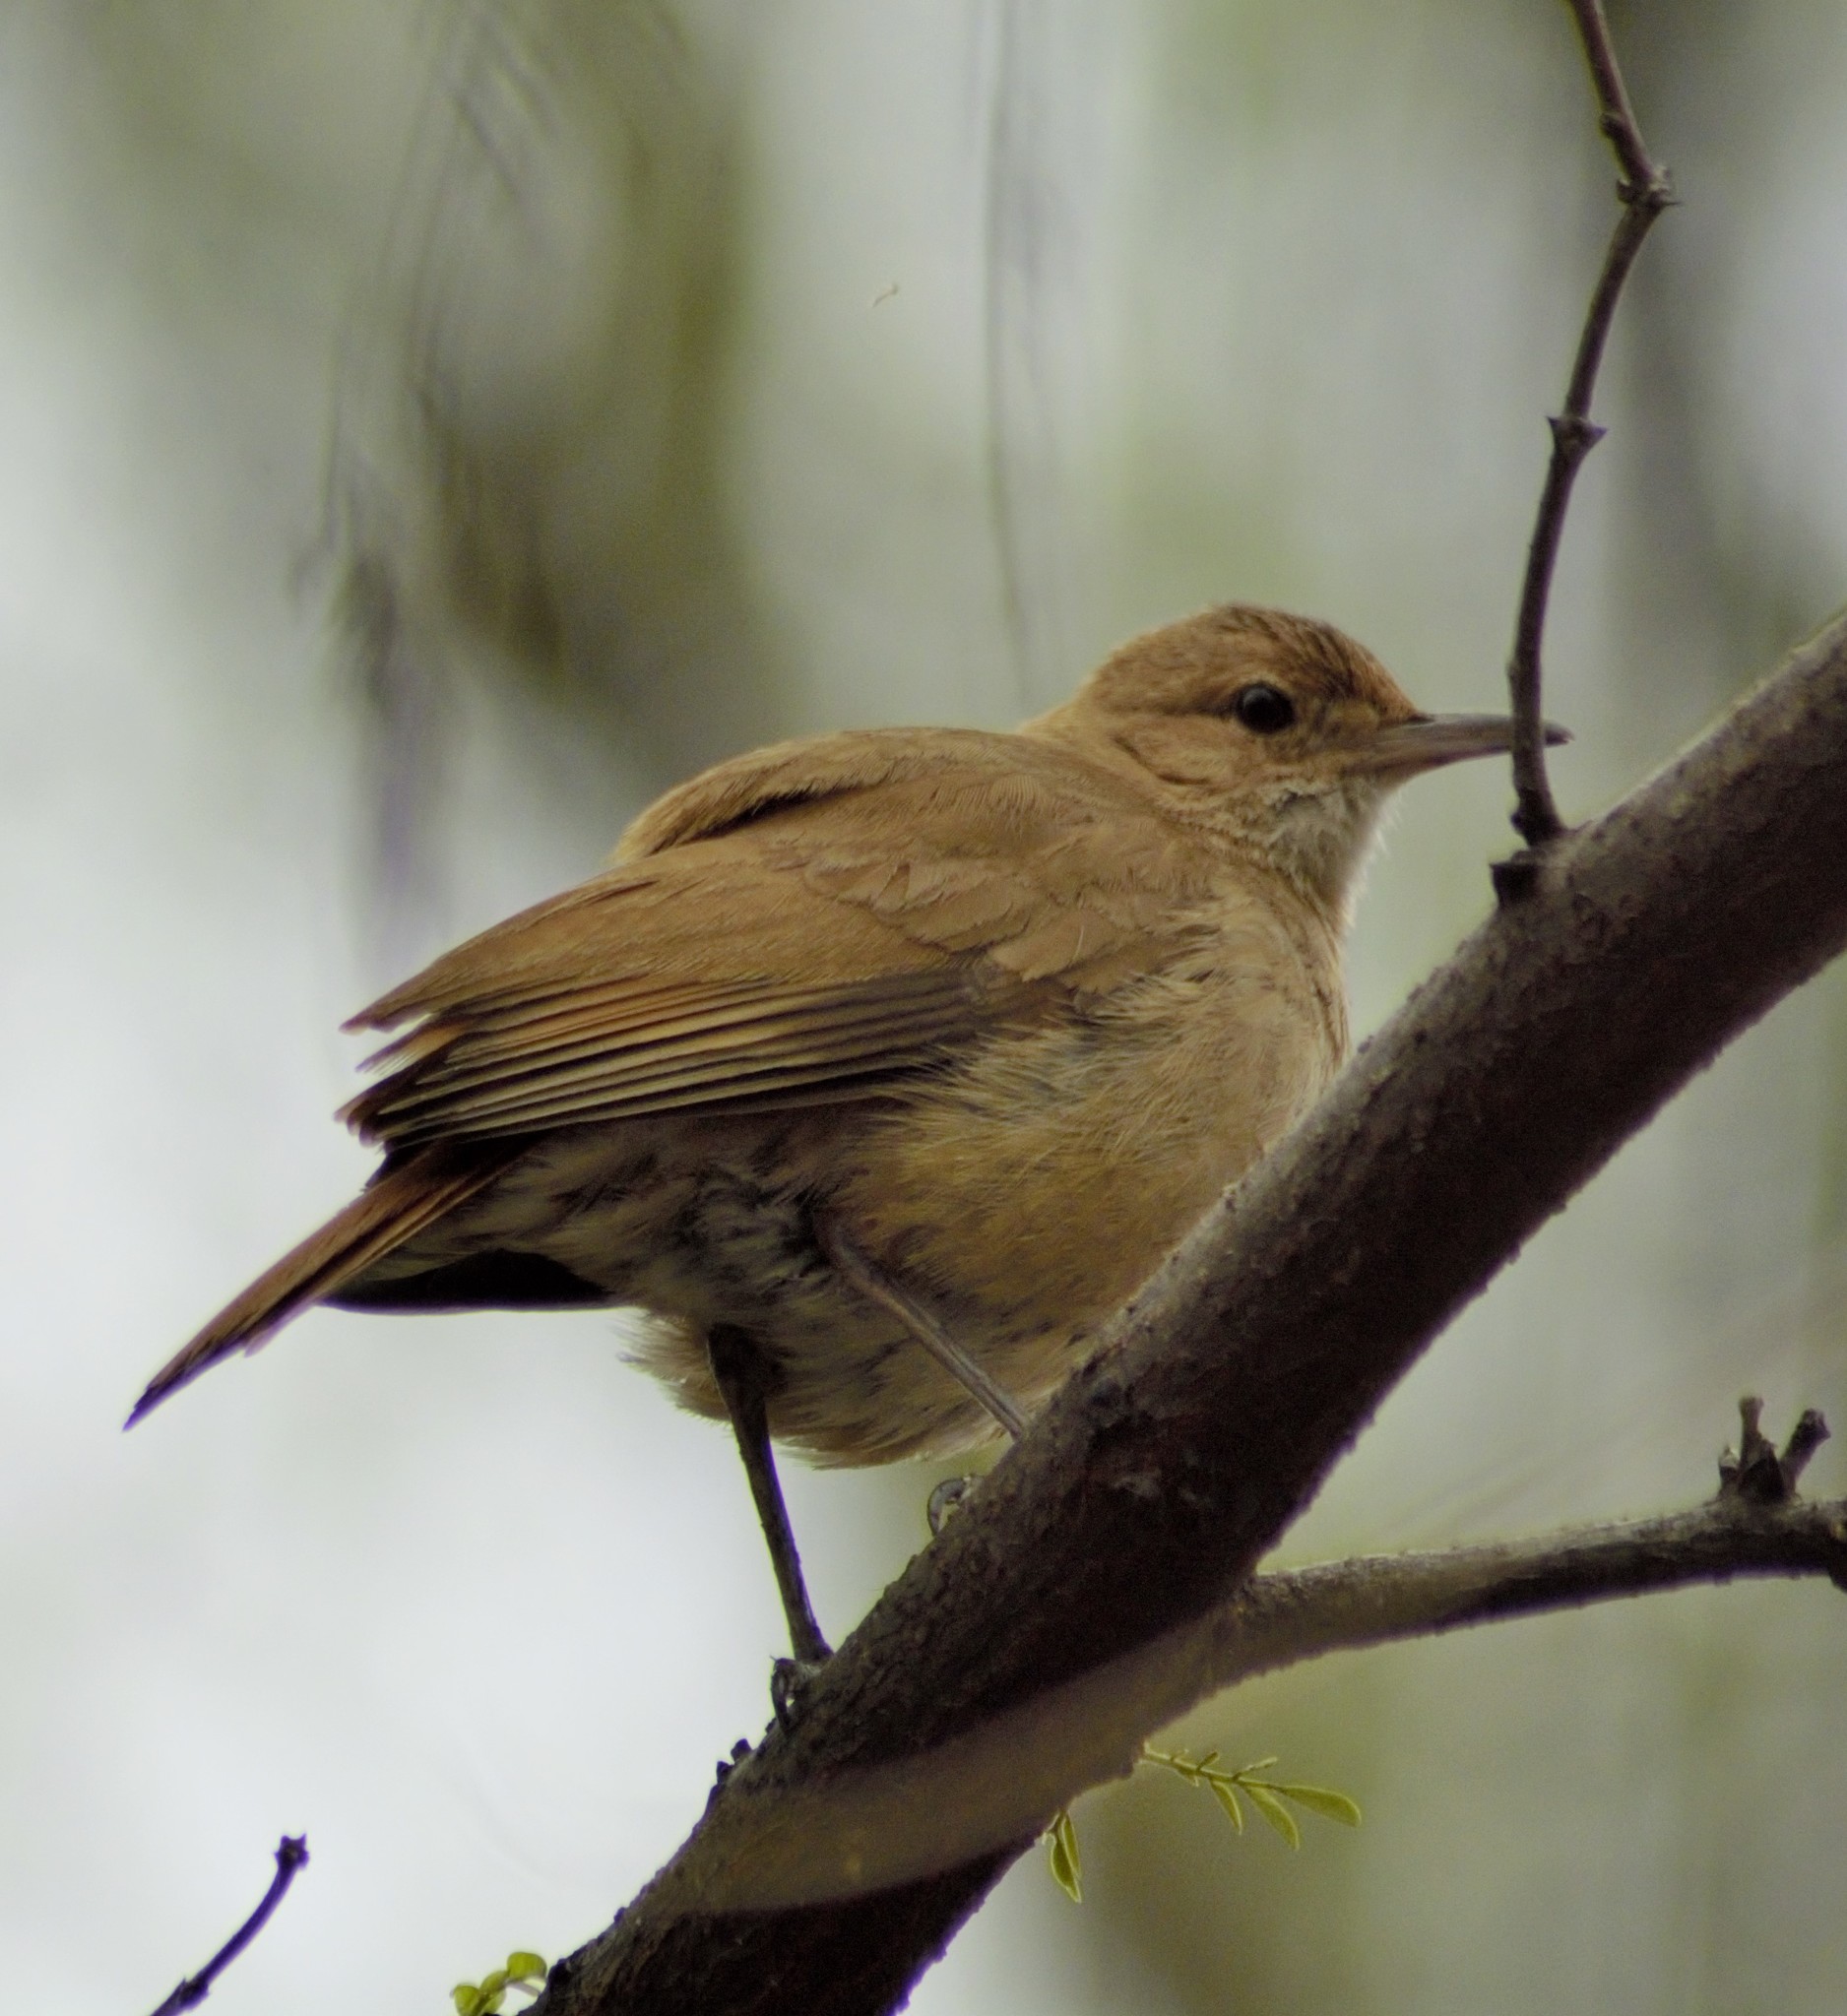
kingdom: Animalia
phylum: Chordata
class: Aves
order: Passeriformes
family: Furnariidae
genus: Furnarius
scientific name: Furnarius rufus
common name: Rufous hornero
